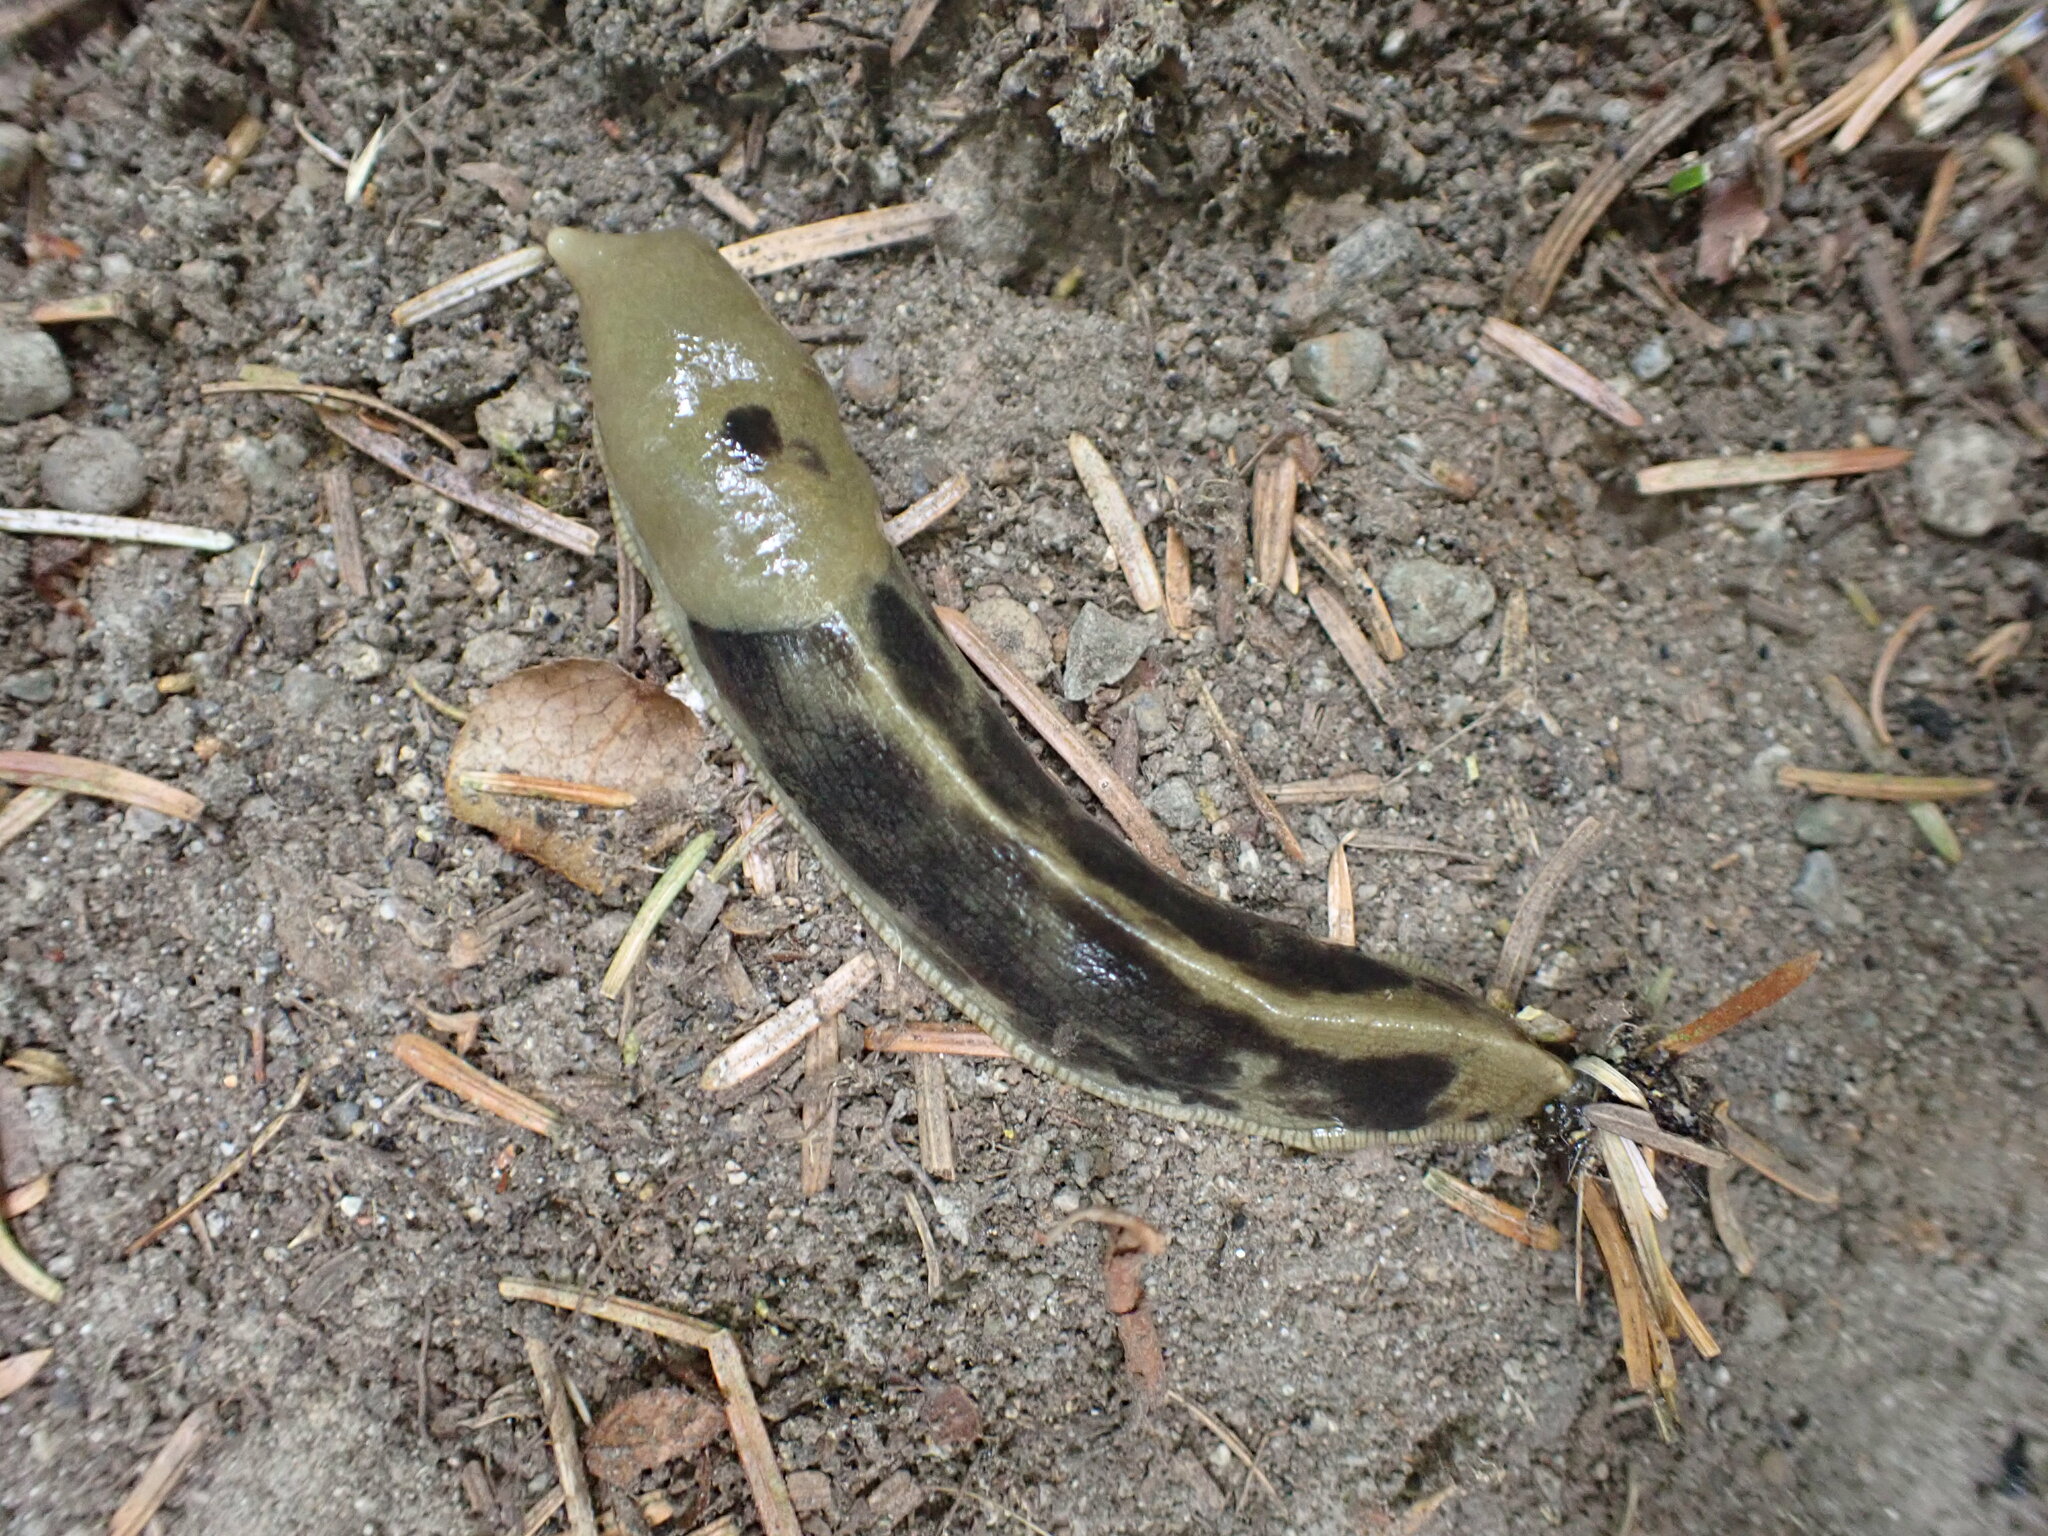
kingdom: Animalia
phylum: Mollusca
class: Gastropoda
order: Stylommatophora
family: Ariolimacidae
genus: Ariolimax
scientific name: Ariolimax columbianus
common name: Pacific banana slug
